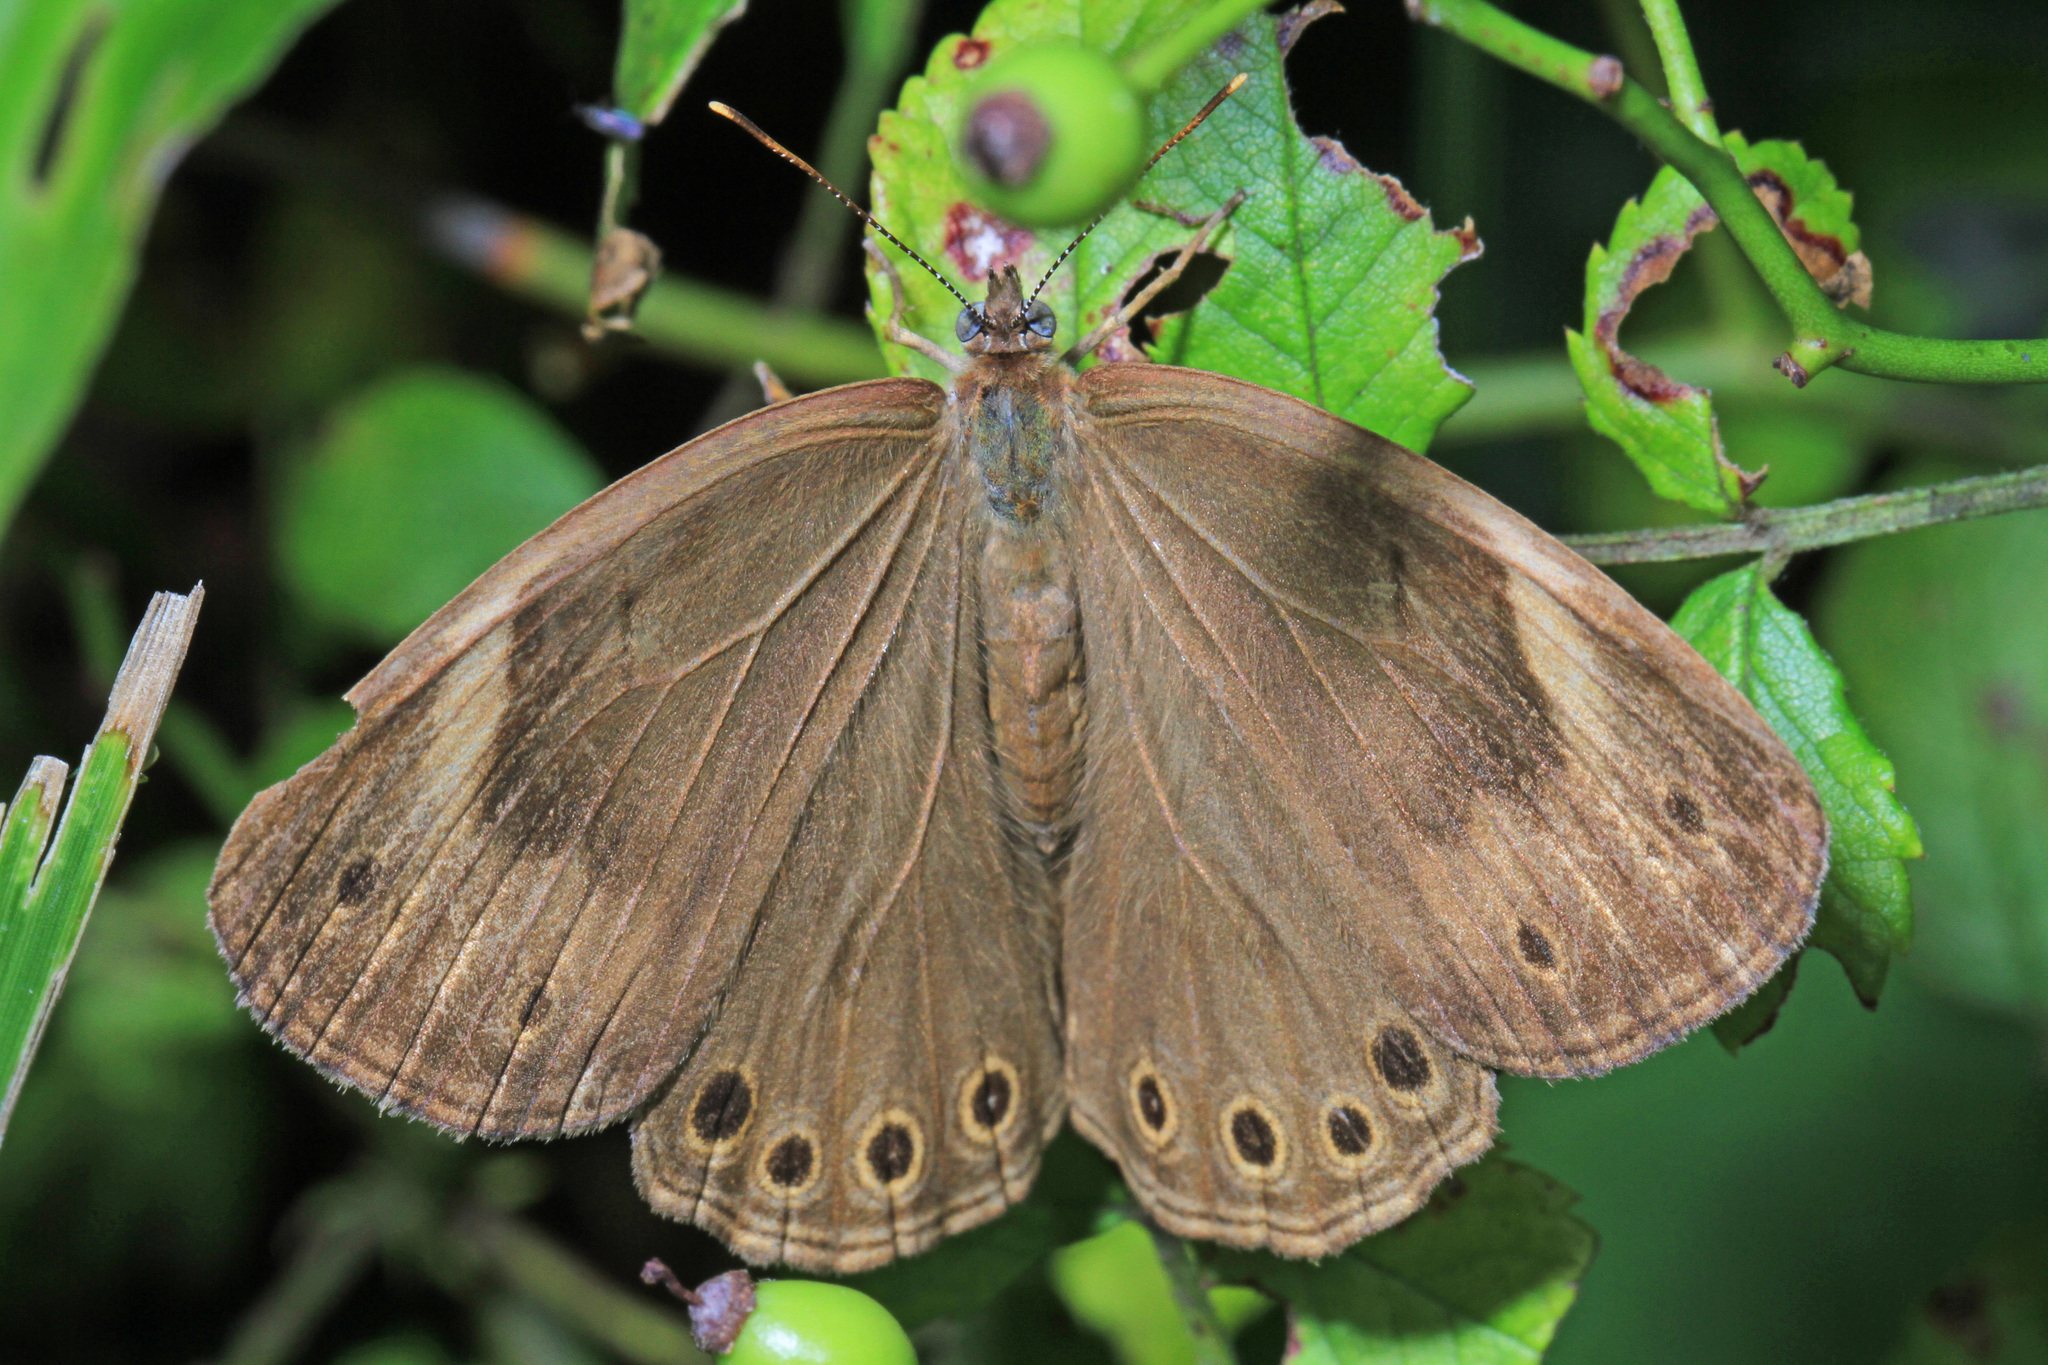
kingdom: Animalia
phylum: Arthropoda
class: Insecta
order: Lepidoptera
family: Nymphalidae
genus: Lethe
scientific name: Lethe eurydice
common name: Eyed brown
